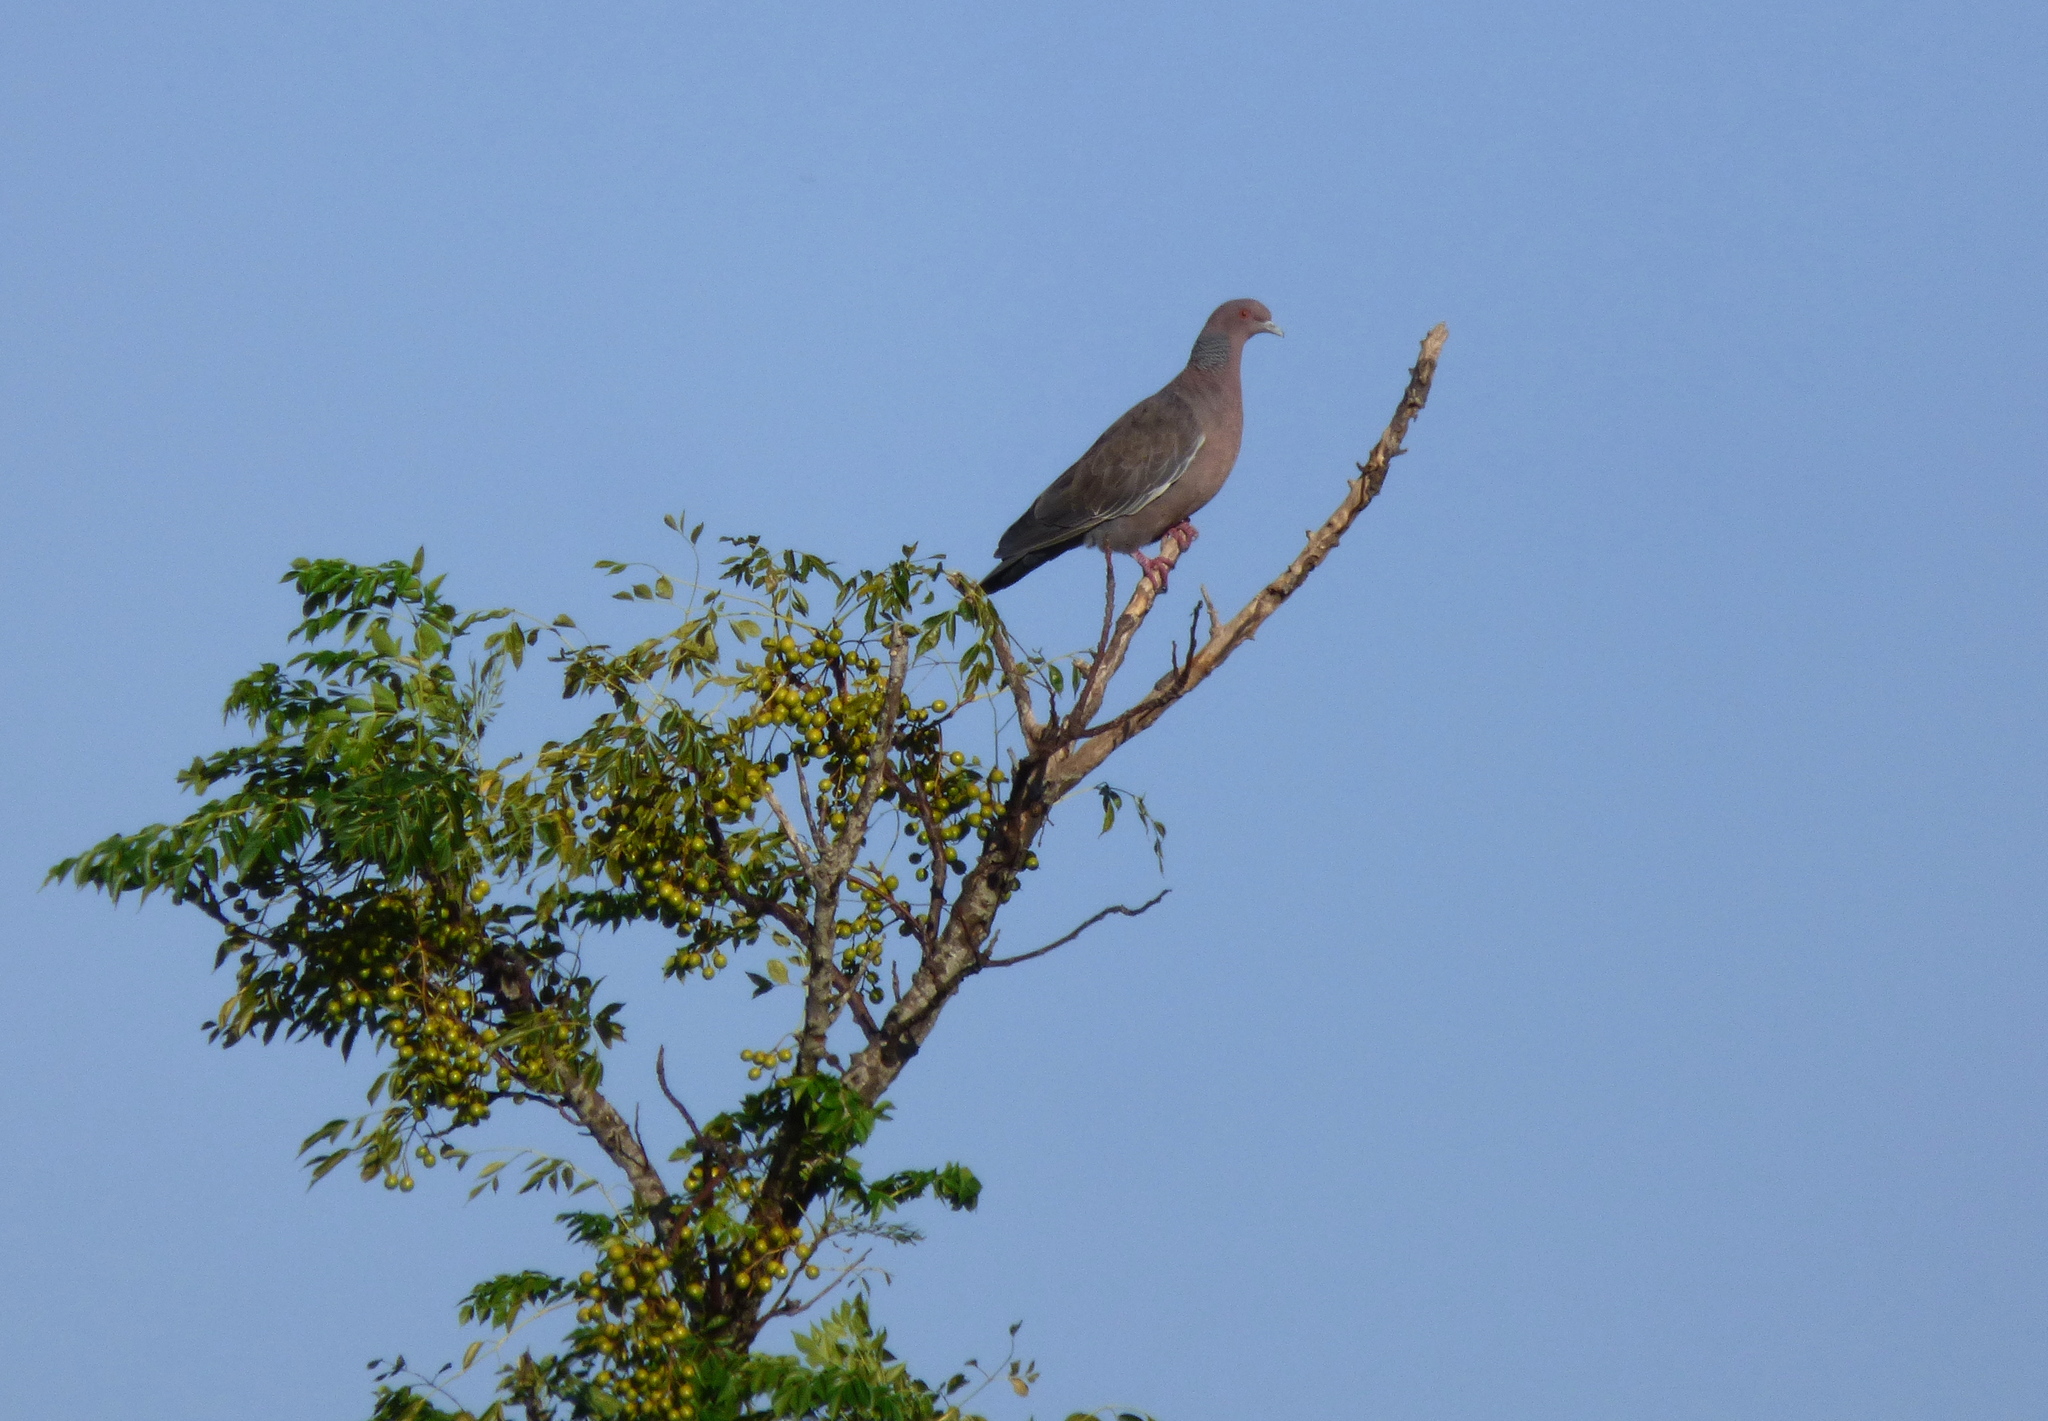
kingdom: Animalia
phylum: Chordata
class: Aves
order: Columbiformes
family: Columbidae
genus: Patagioenas
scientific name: Patagioenas picazuro
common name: Picazuro pigeon
